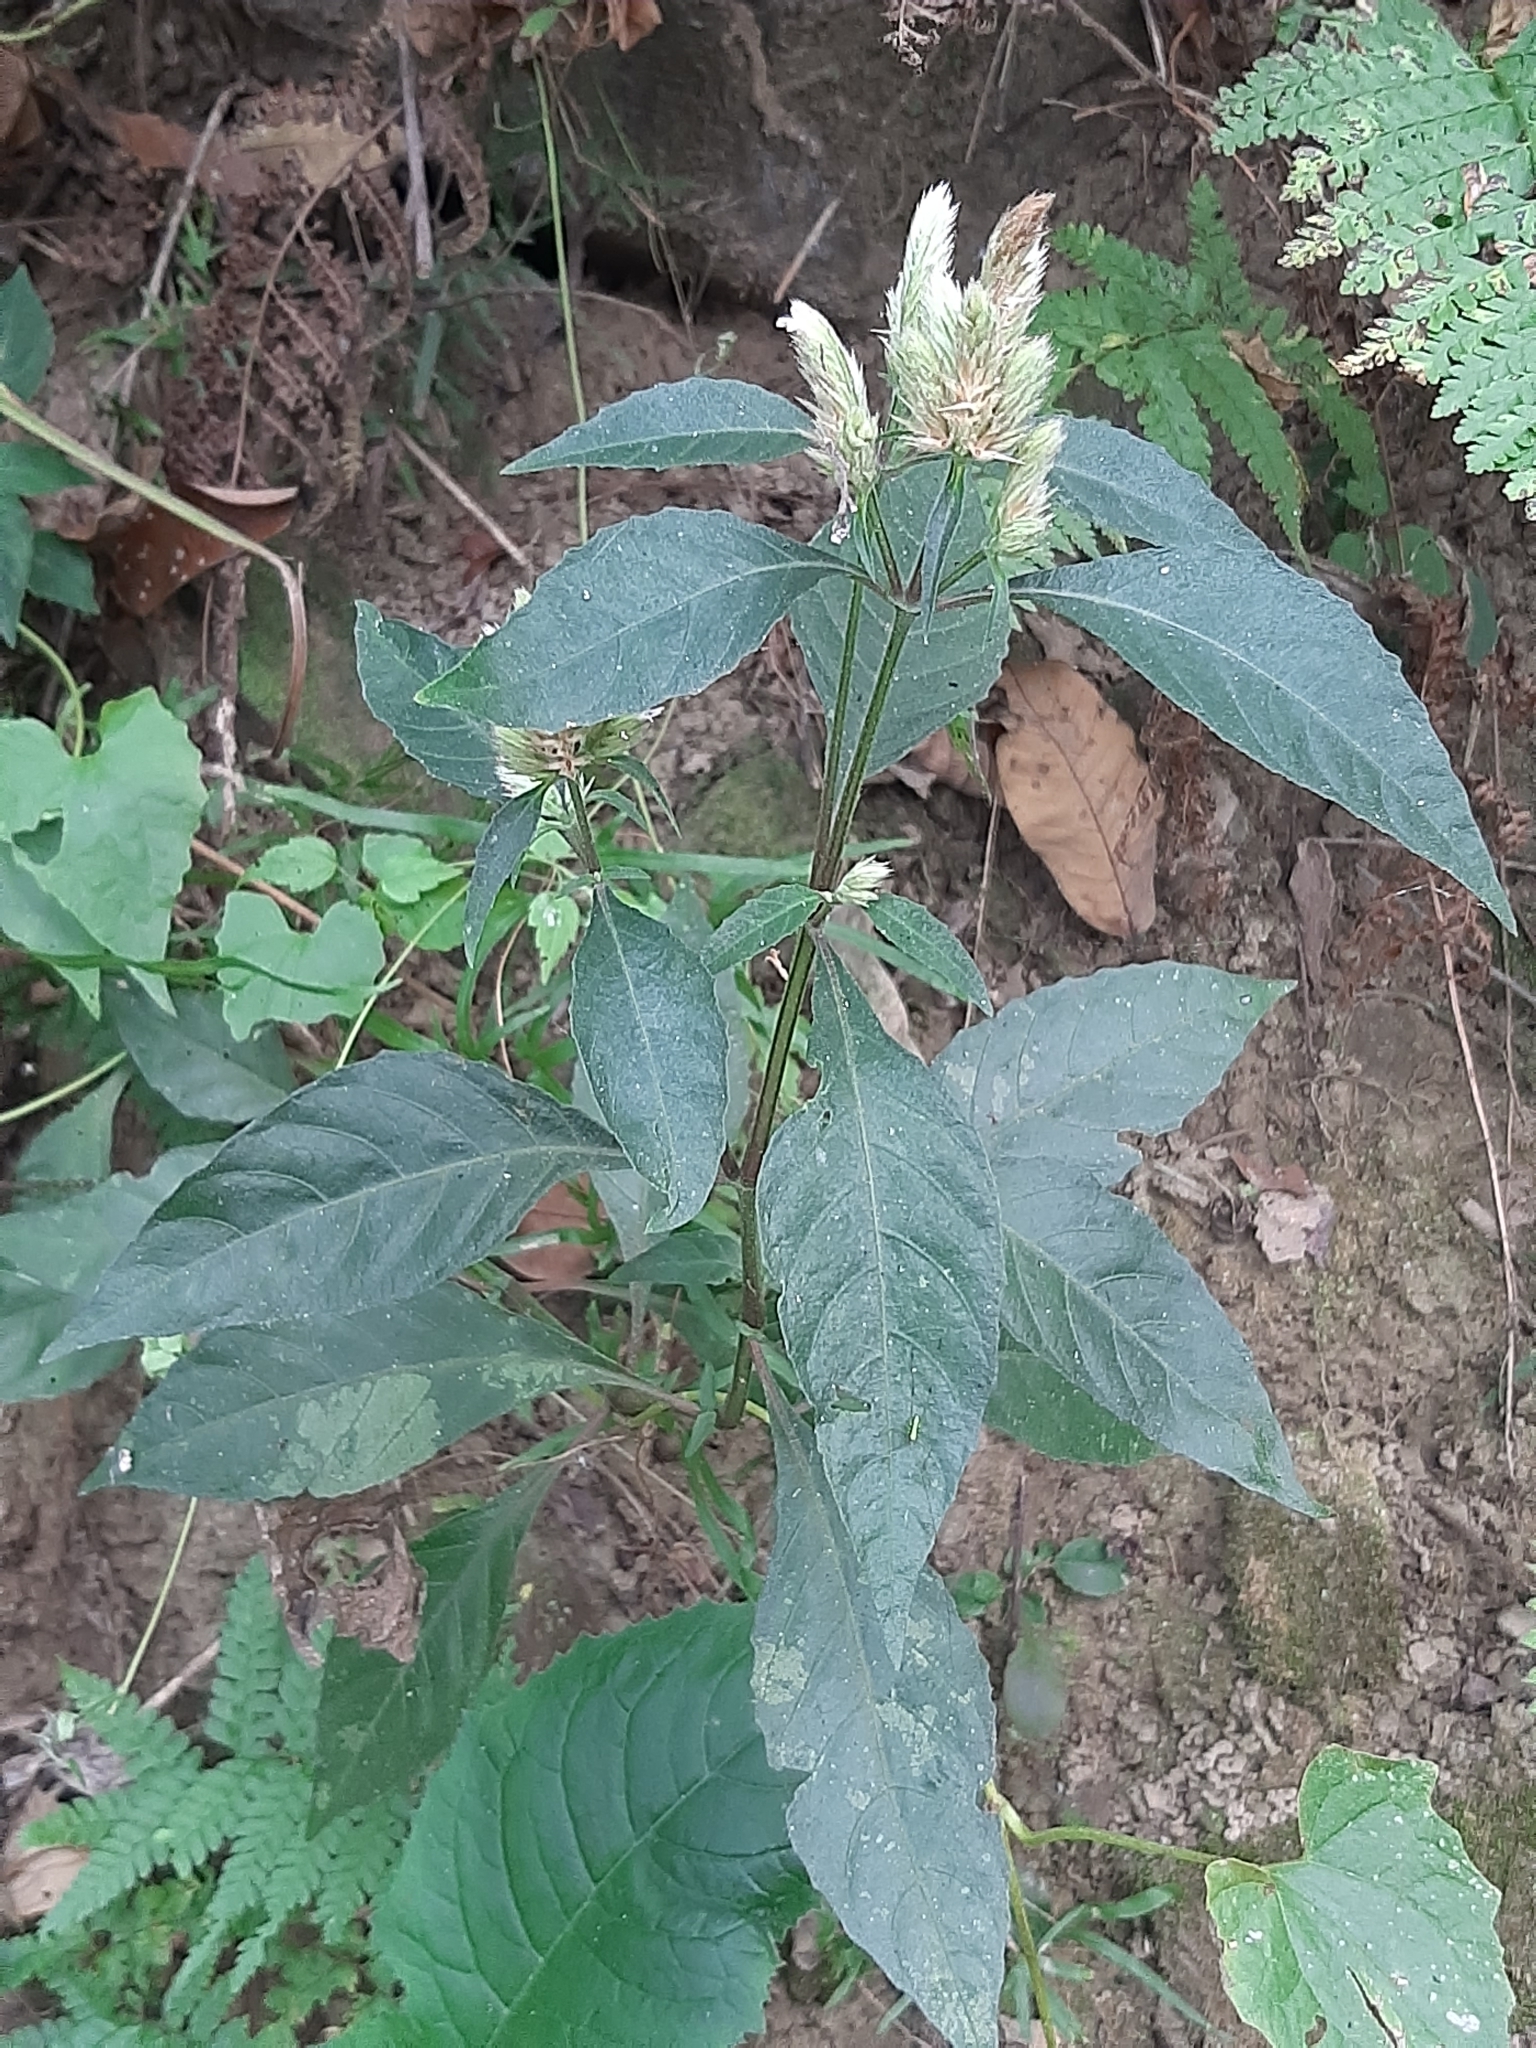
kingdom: Plantae
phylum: Tracheophyta
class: Magnoliopsida
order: Lamiales
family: Acanthaceae
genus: Lepidagathis
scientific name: Lepidagathis formosensis
